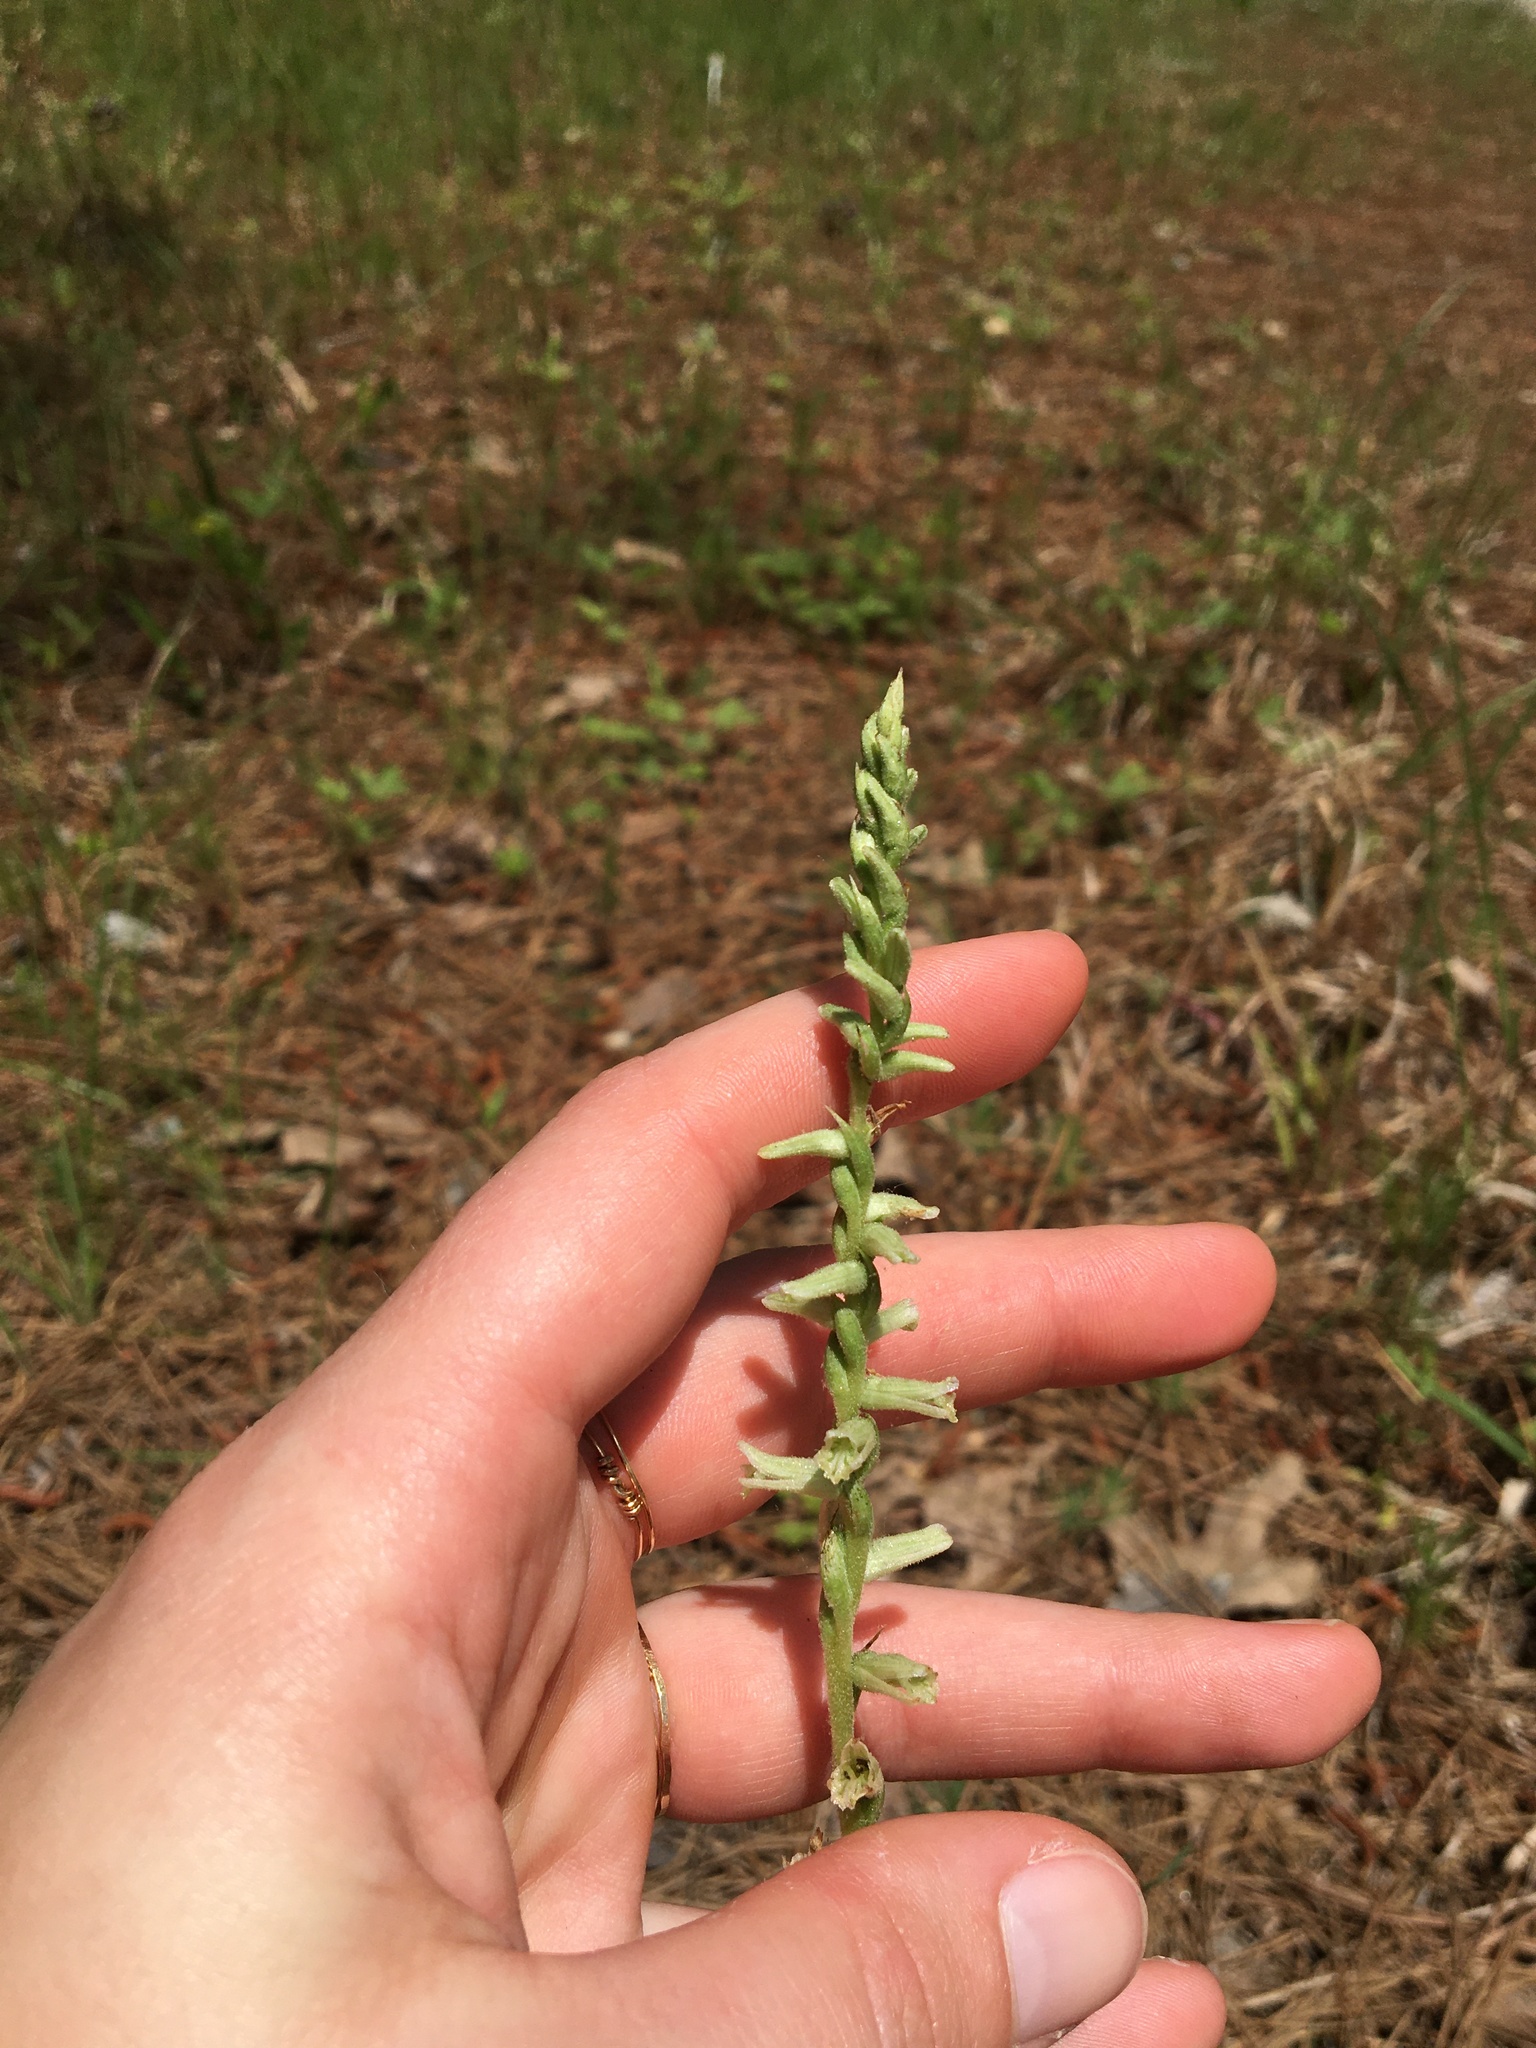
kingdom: Plantae
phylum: Tracheophyta
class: Liliopsida
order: Asparagales
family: Orchidaceae
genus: Spiranthes
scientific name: Spiranthes praecox
